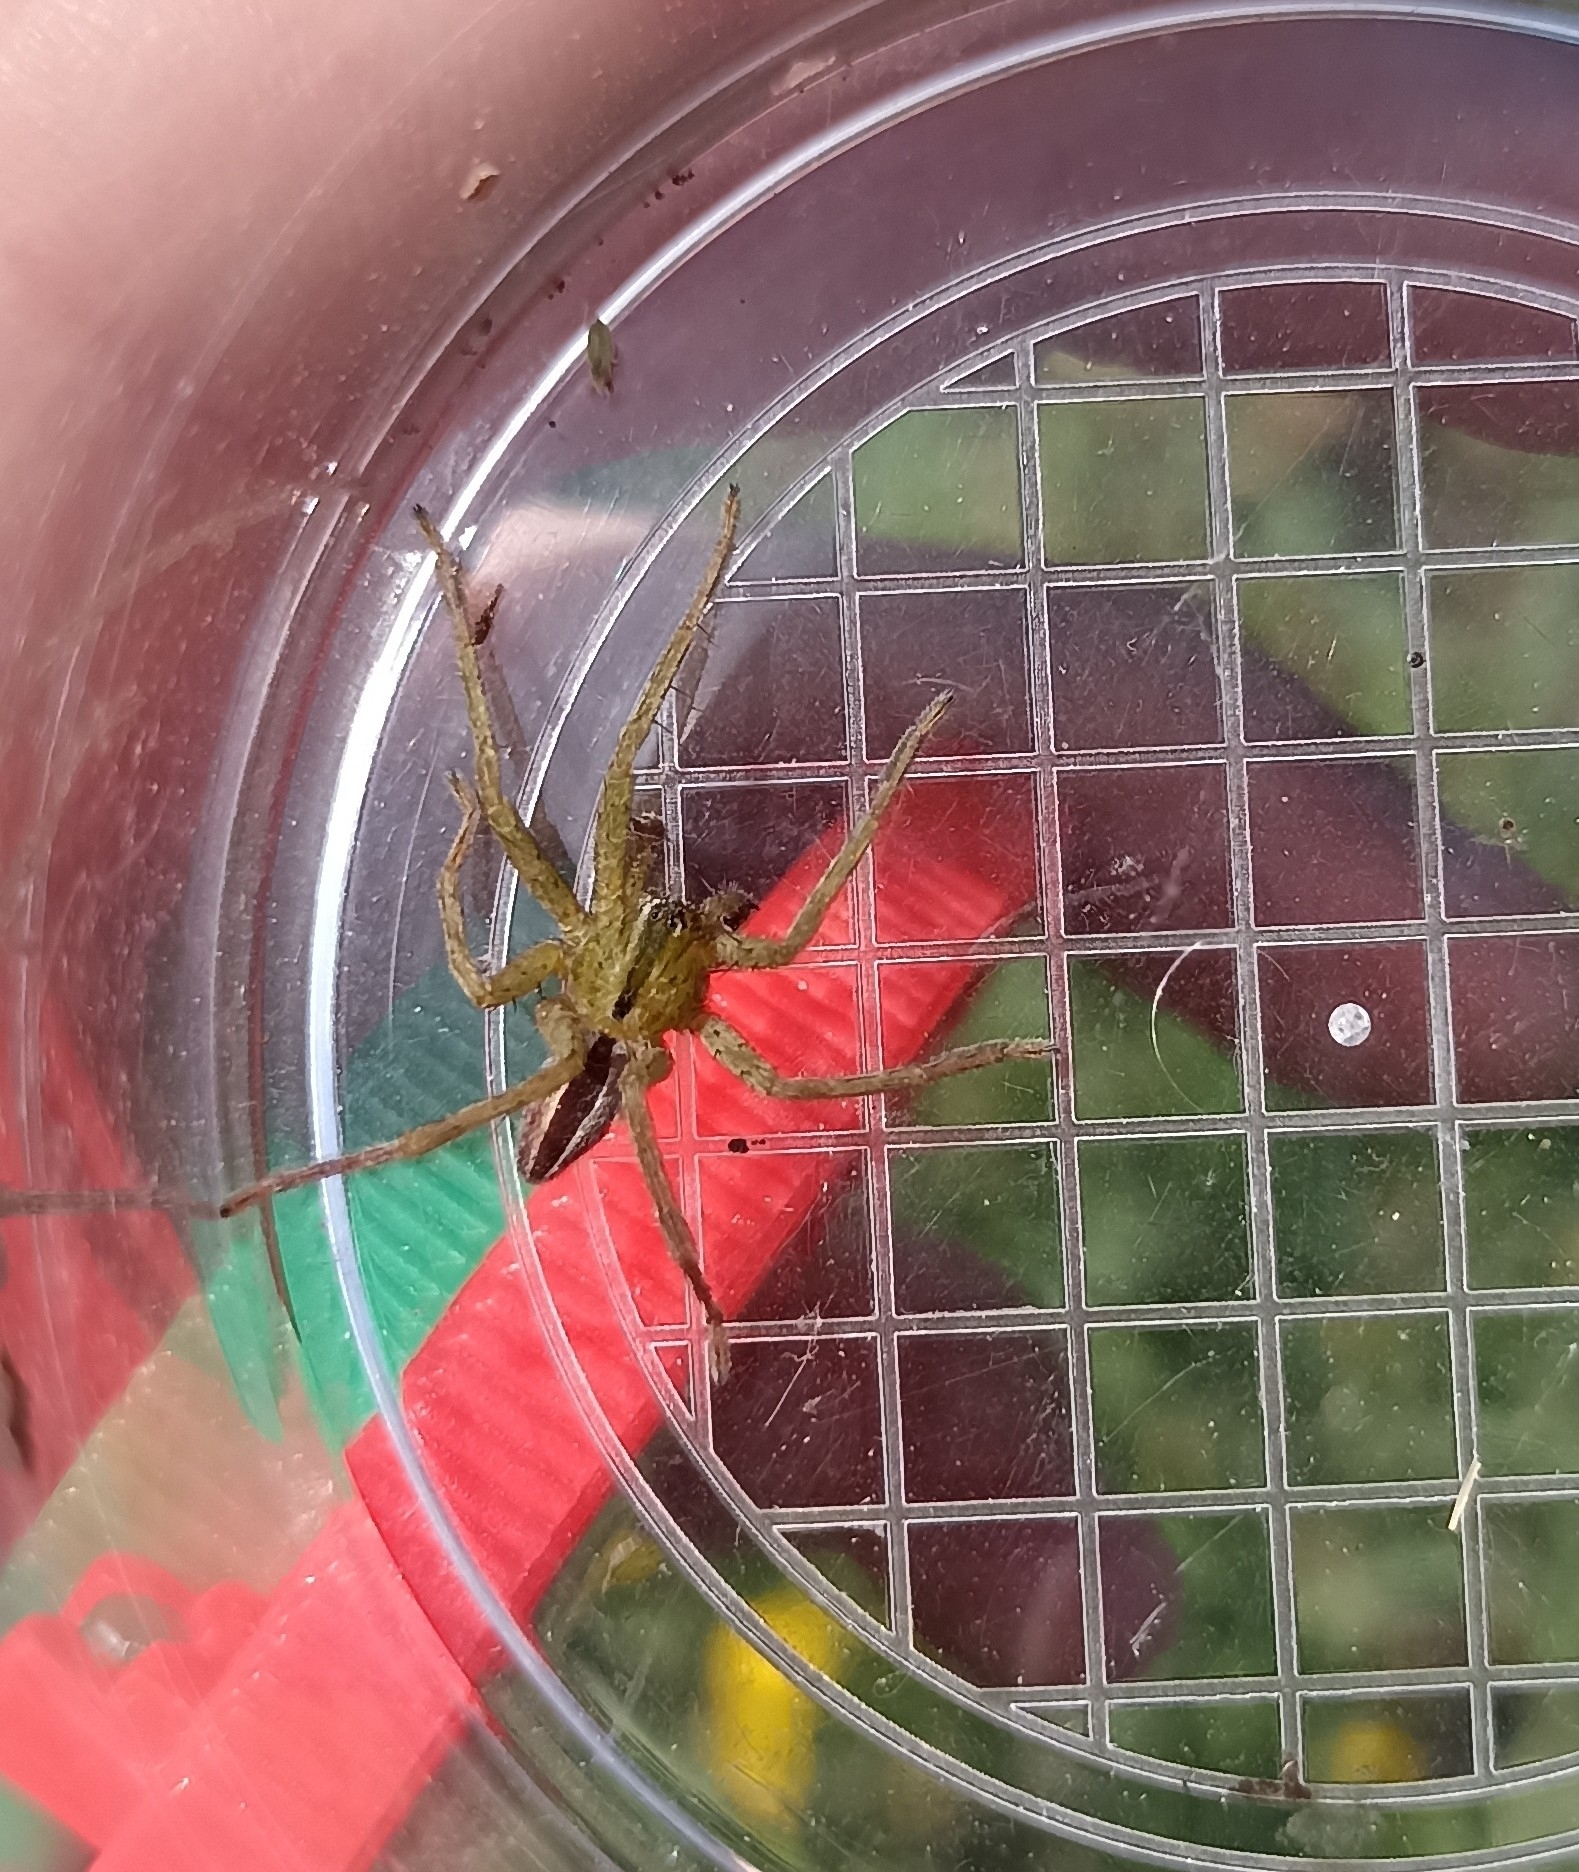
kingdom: Animalia
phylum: Arthropoda
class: Arachnida
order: Araneae
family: Sparassidae
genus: Micrommata
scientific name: Micrommata ligurina
